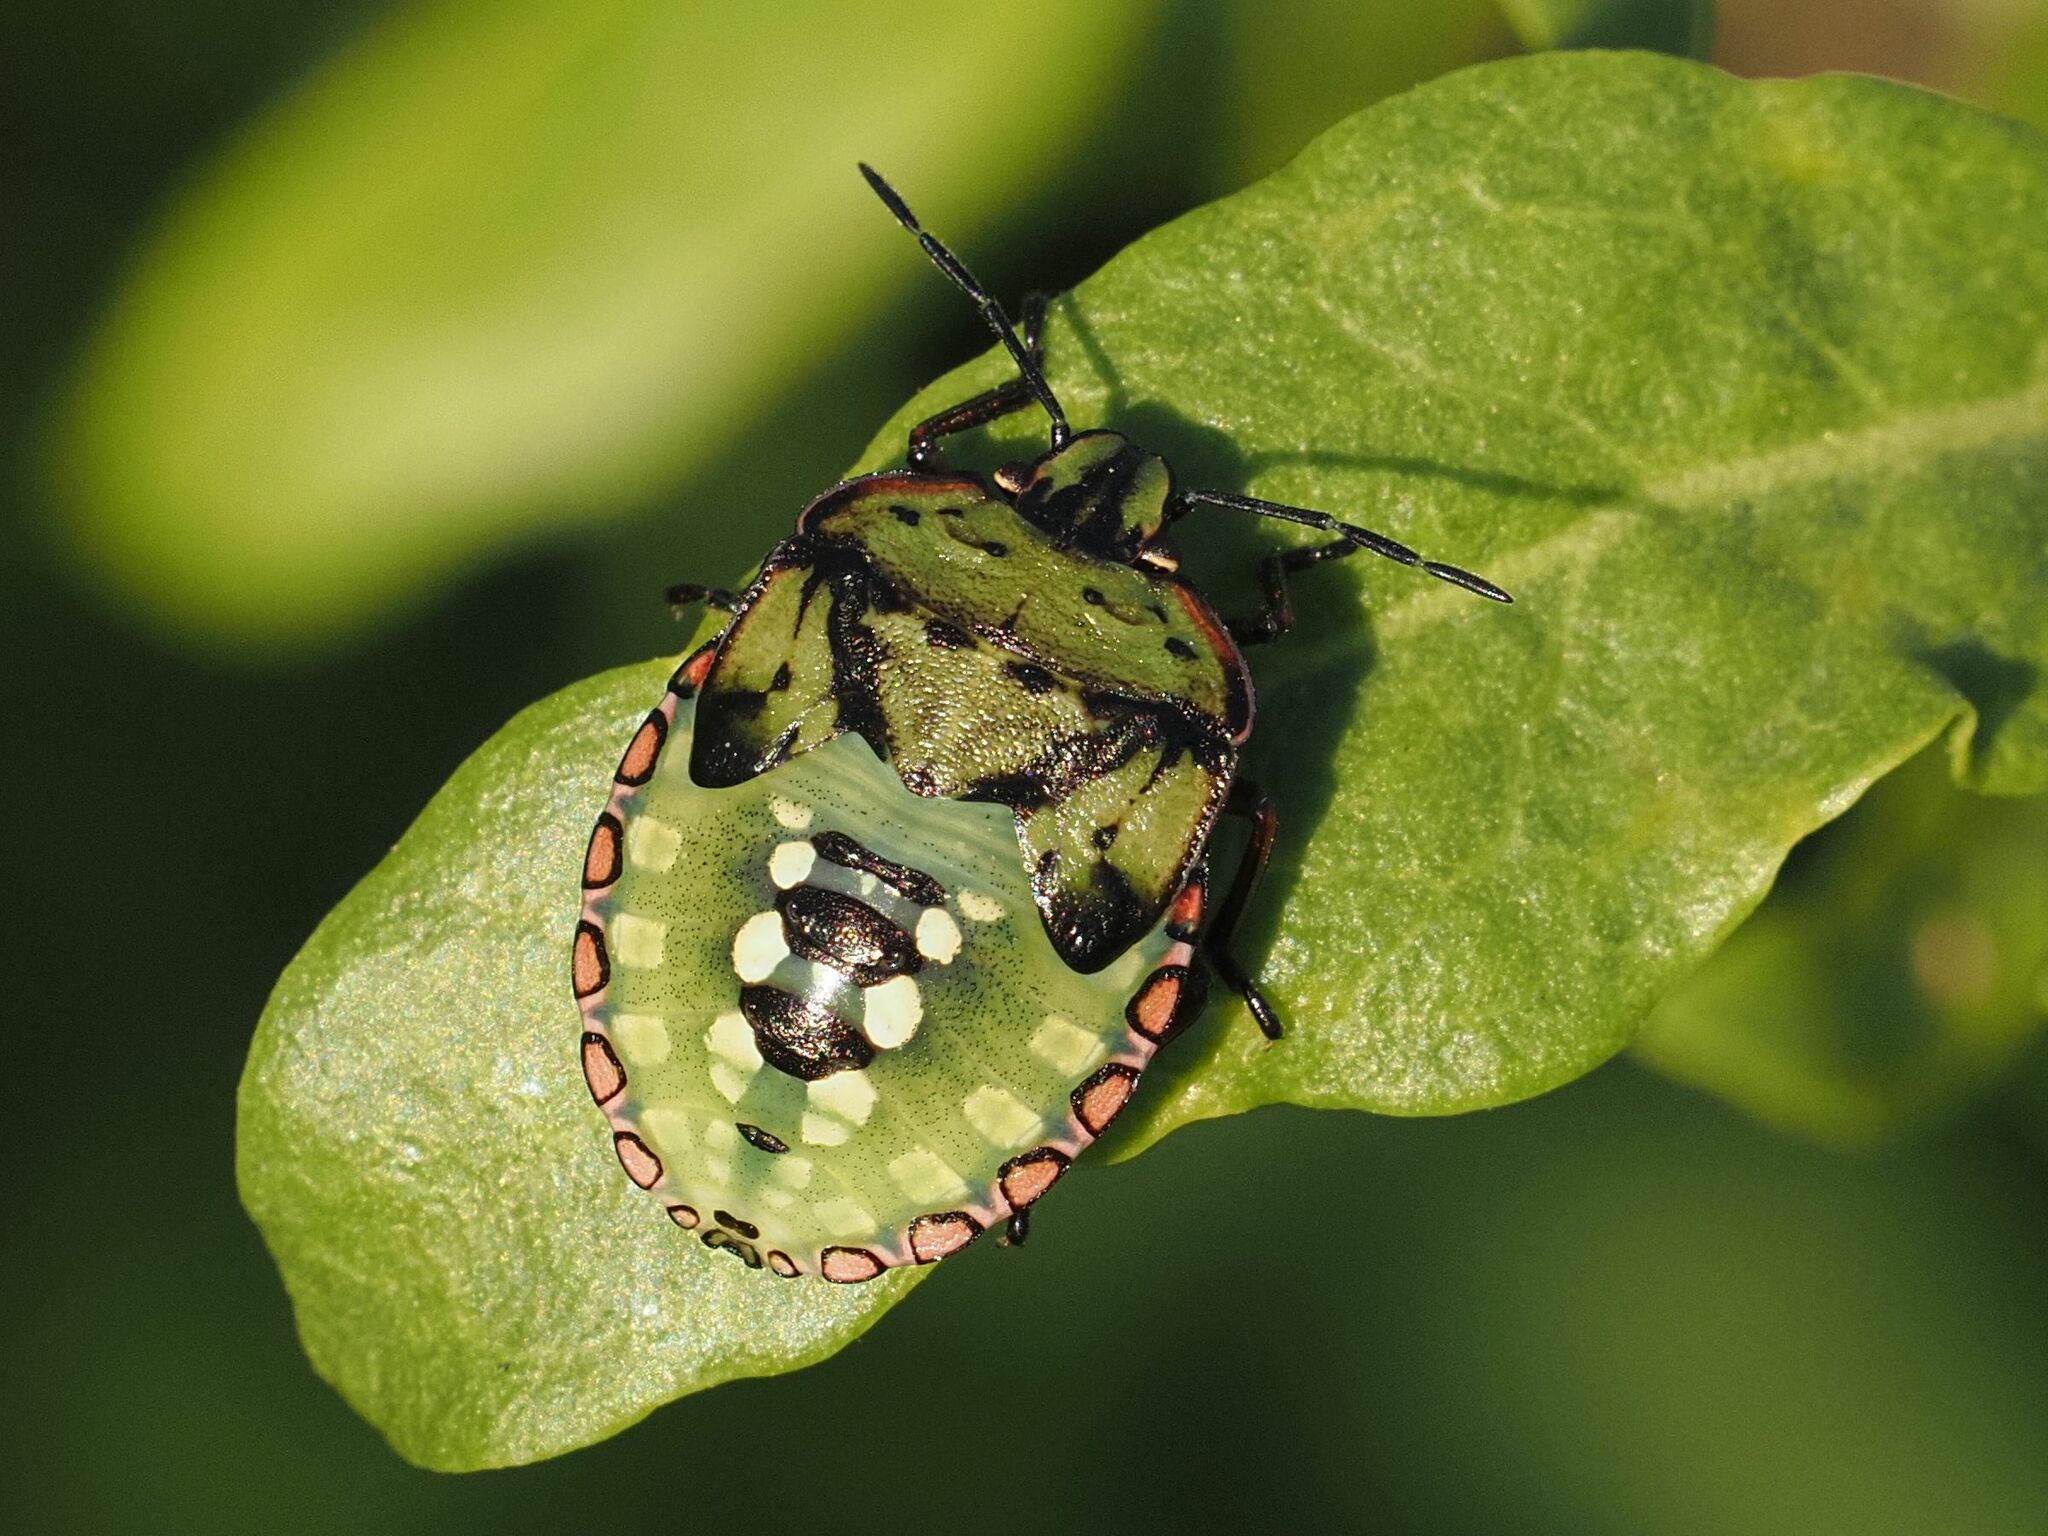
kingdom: Animalia
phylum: Arthropoda
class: Insecta
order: Hemiptera
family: Pentatomidae
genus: Nezara
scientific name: Nezara viridula
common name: Southern green stink bug
